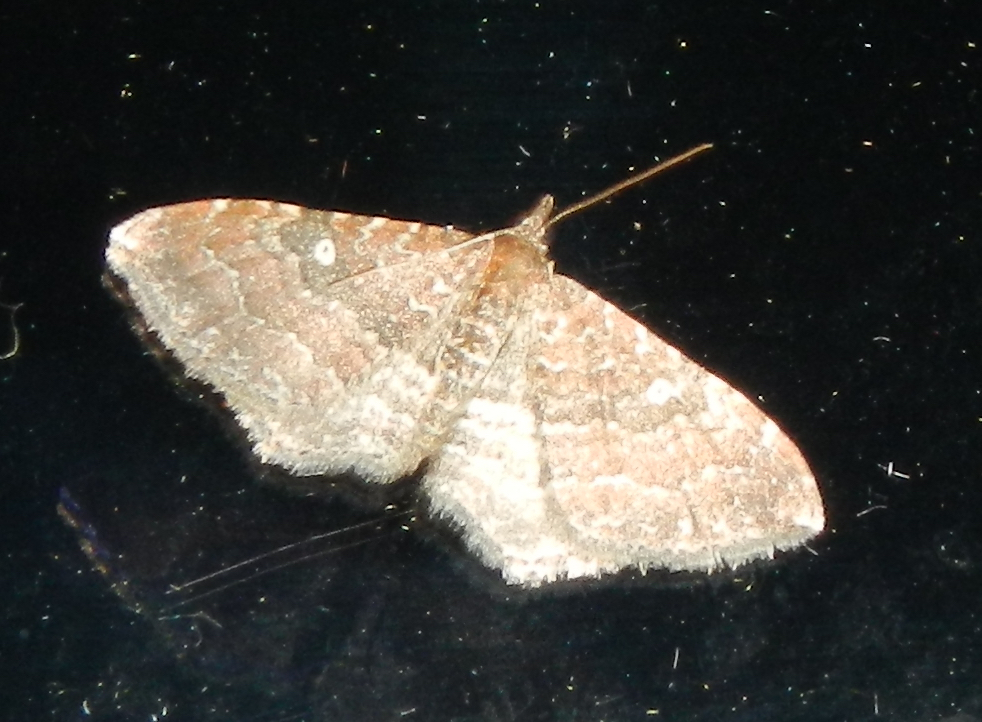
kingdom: Animalia
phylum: Arthropoda
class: Insecta
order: Lepidoptera
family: Geometridae
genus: Orthonama
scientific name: Orthonama obstipata
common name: The gem
